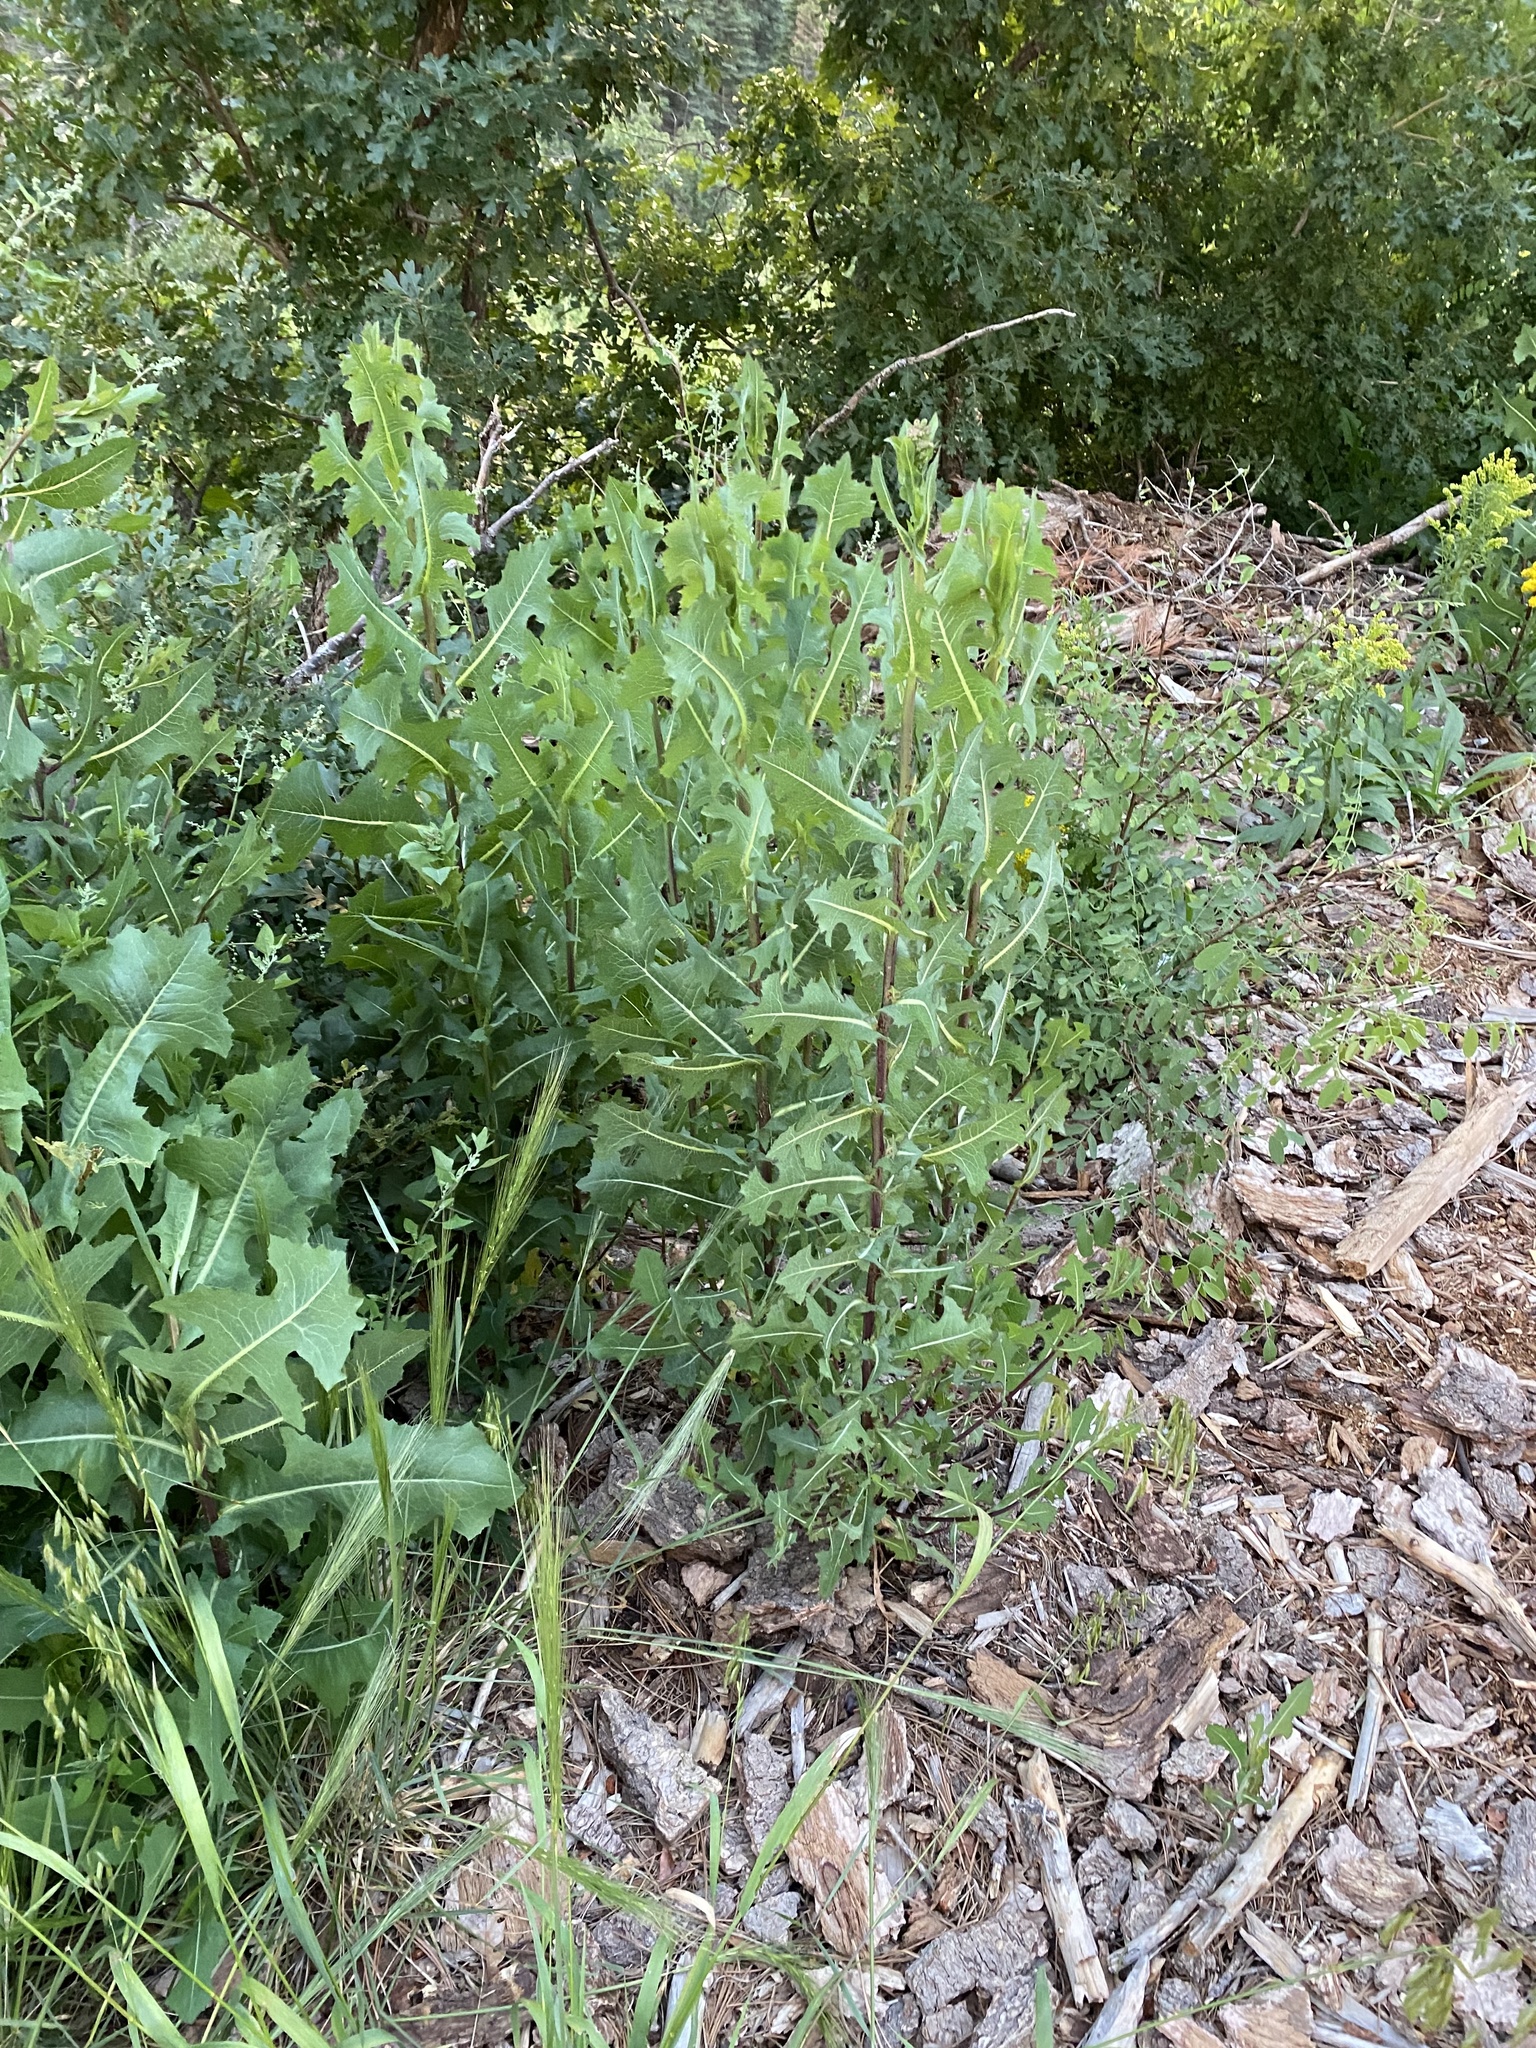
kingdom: Plantae
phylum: Tracheophyta
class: Magnoliopsida
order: Asterales
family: Asteraceae
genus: Lactuca
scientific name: Lactuca serriola
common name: Prickly lettuce
